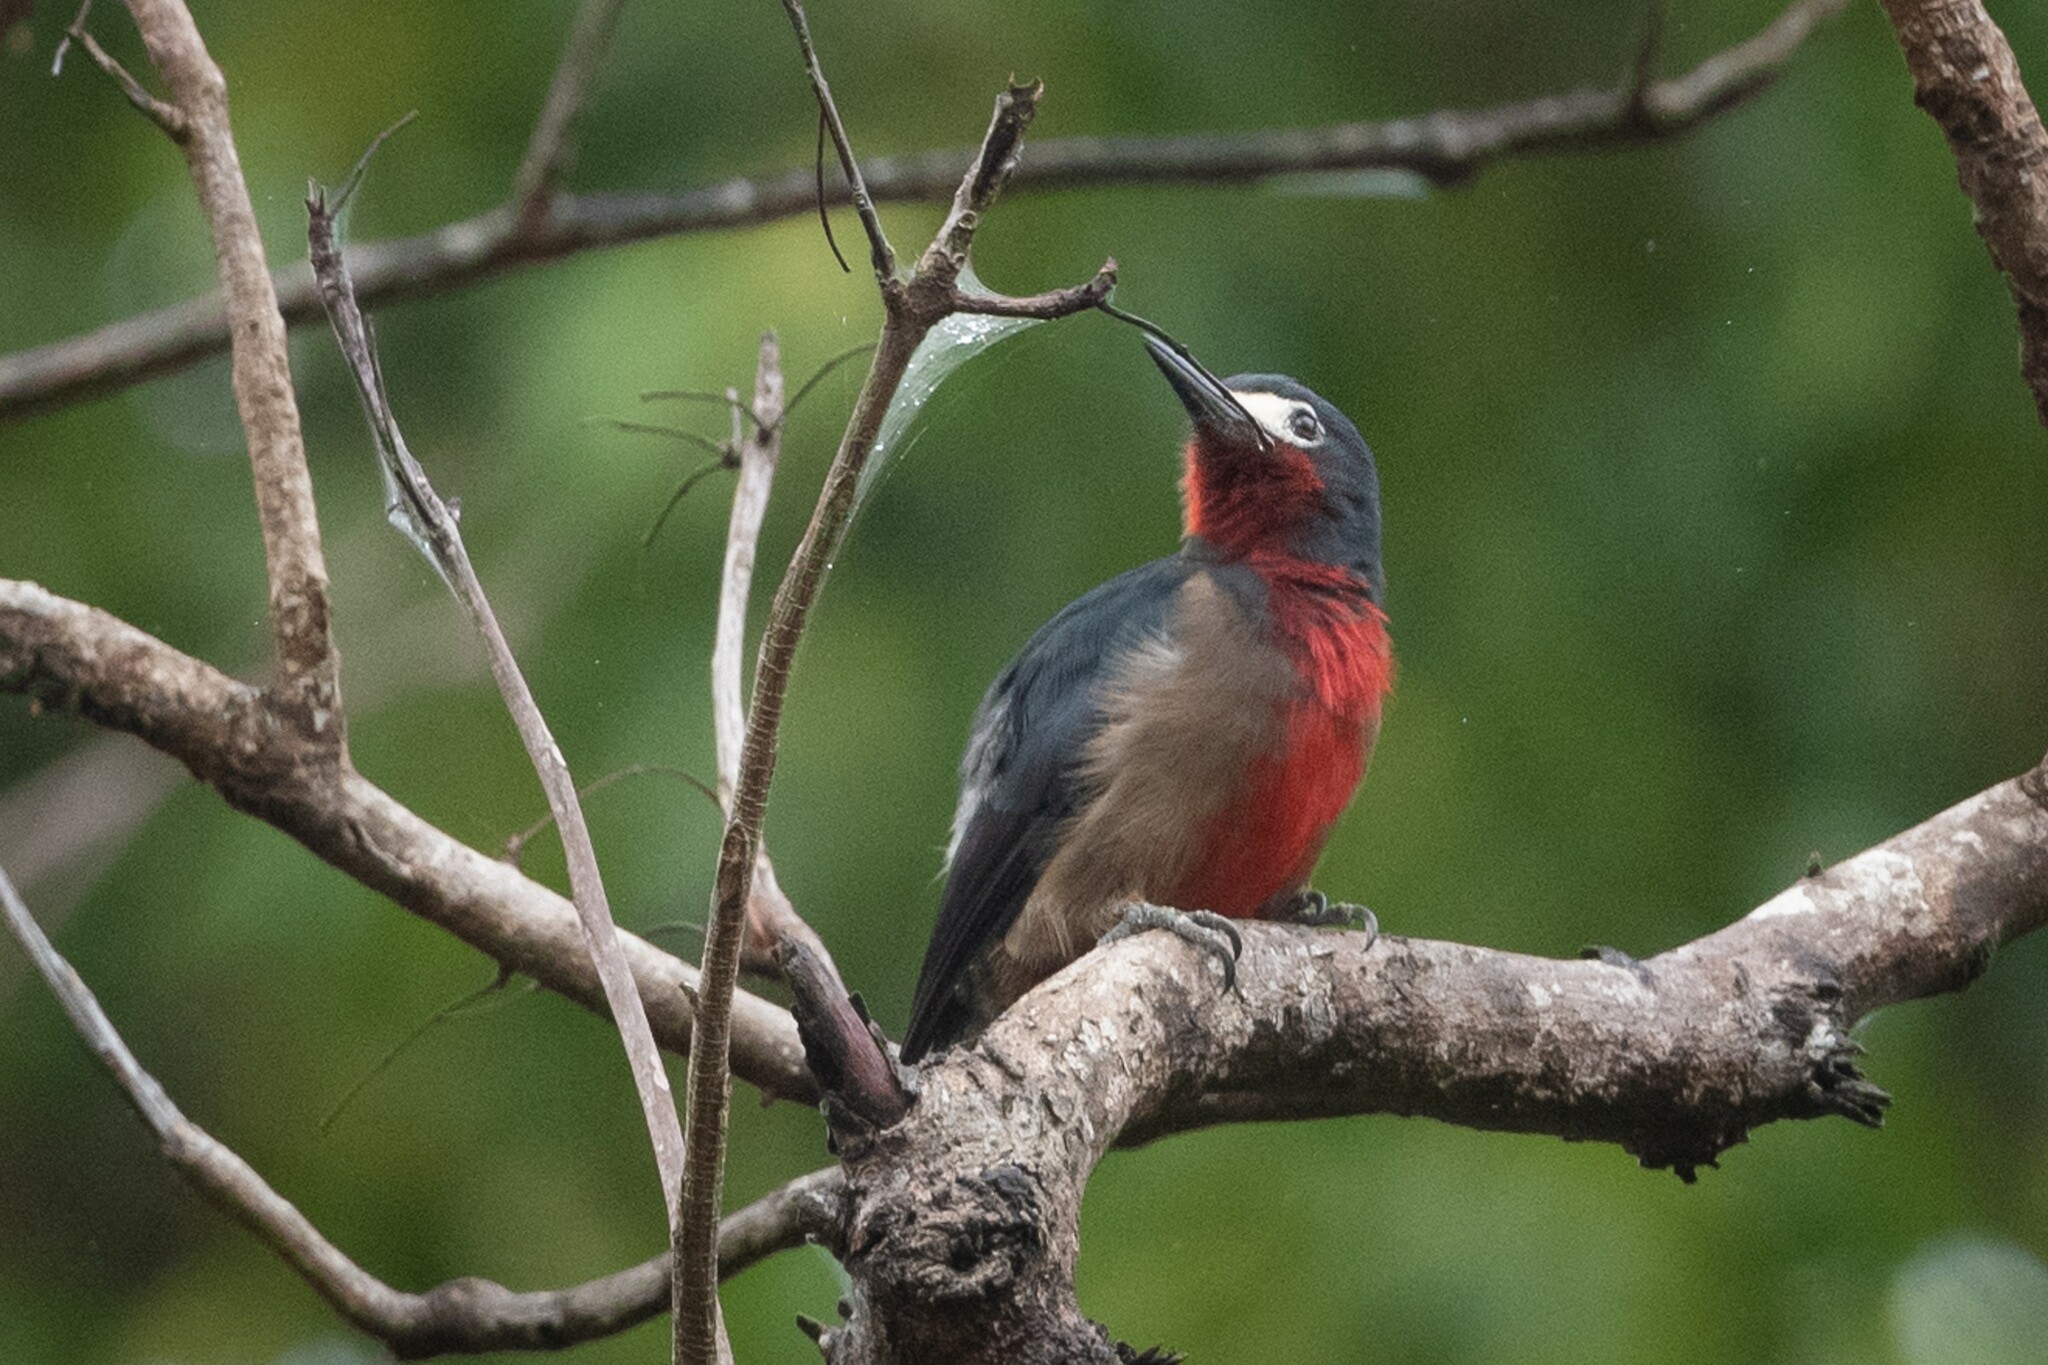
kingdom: Animalia
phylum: Chordata
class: Aves
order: Piciformes
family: Picidae
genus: Melanerpes
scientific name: Melanerpes portoricensis
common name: Puerto rican woodpecker
